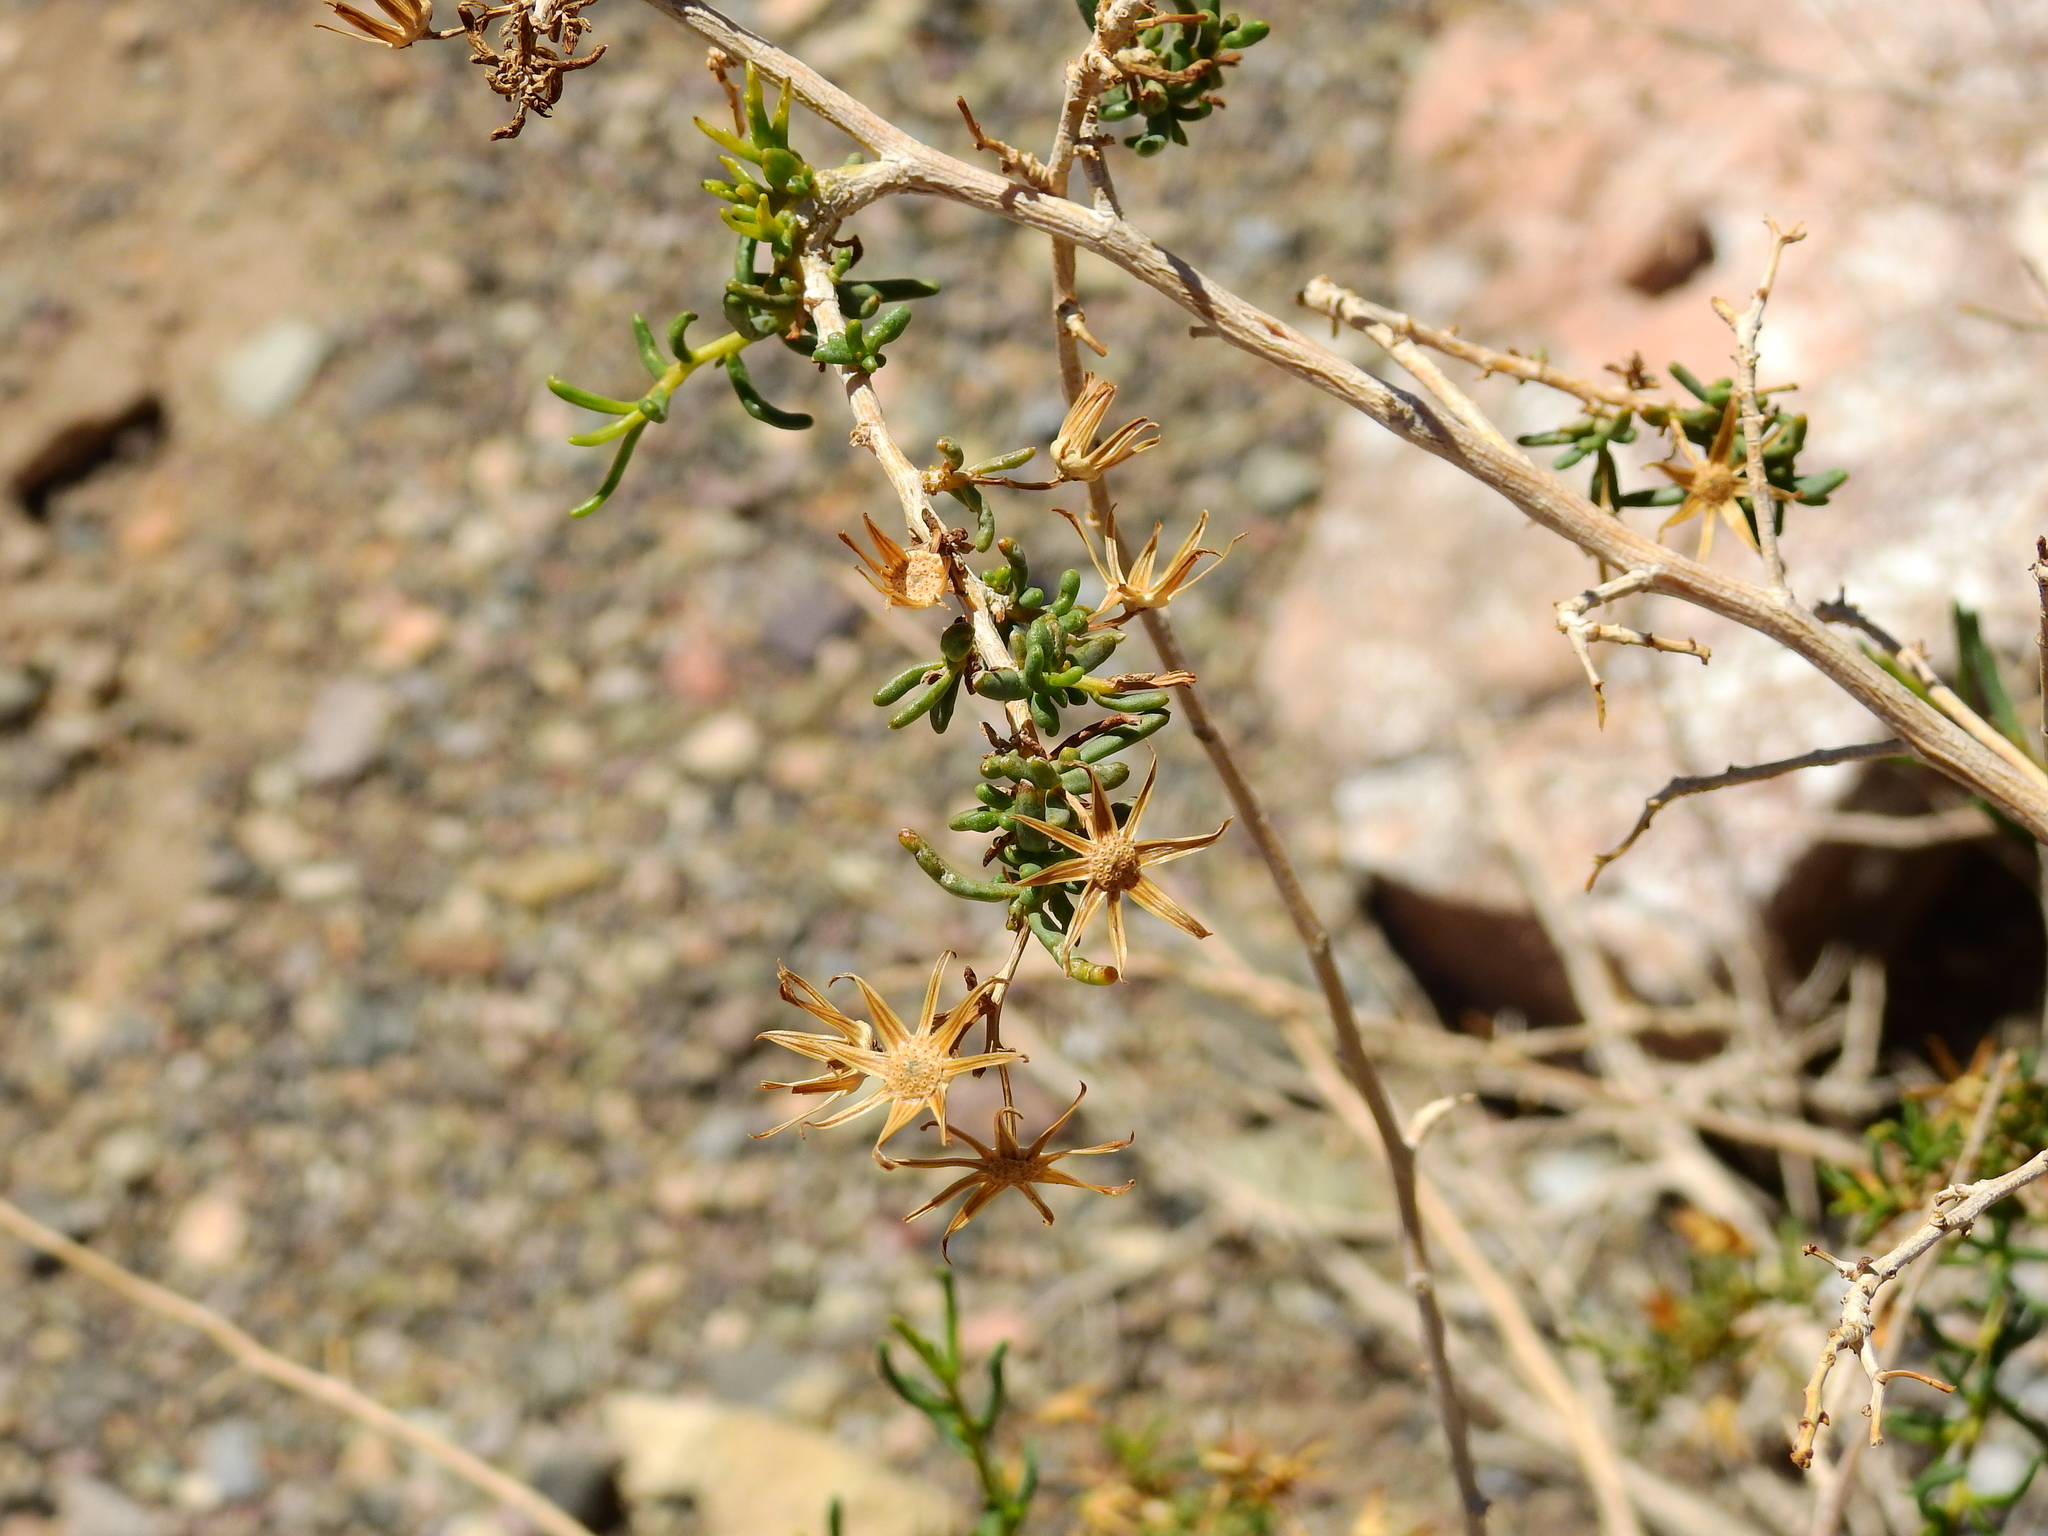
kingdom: Plantae
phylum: Tracheophyta
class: Magnoliopsida
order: Asterales
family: Asteraceae
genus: Senecio
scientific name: Senecio subulatus
